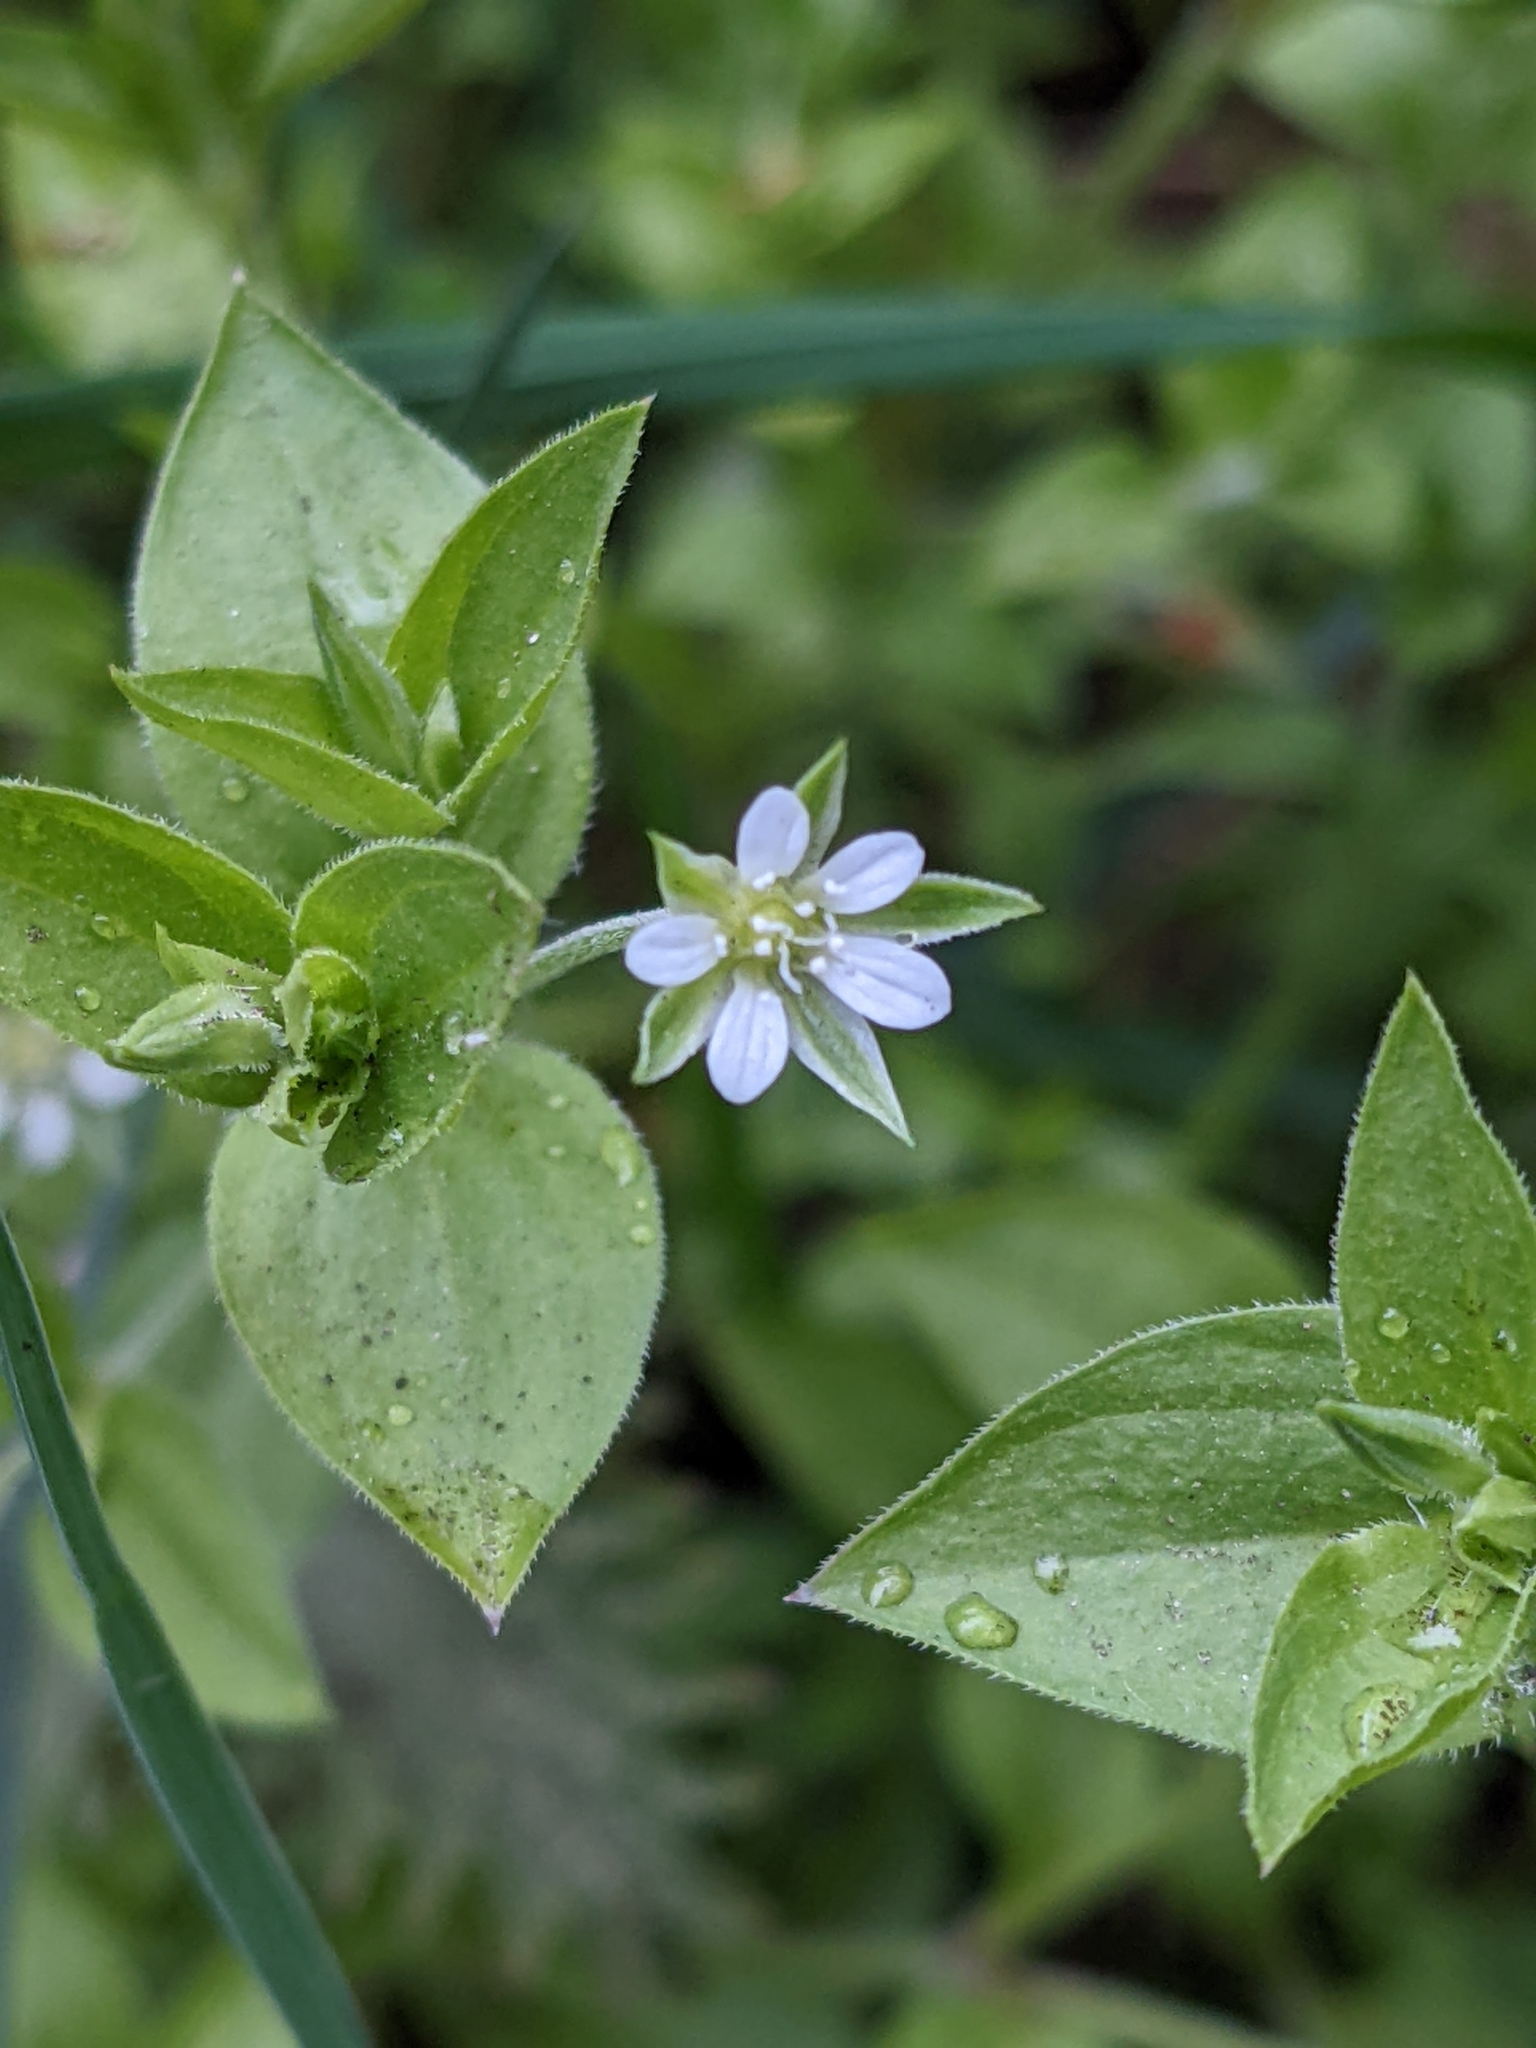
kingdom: Plantae
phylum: Tracheophyta
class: Magnoliopsida
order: Caryophyllales
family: Caryophyllaceae
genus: Moehringia
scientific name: Moehringia trinervia
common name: Three-nerved sandwort
